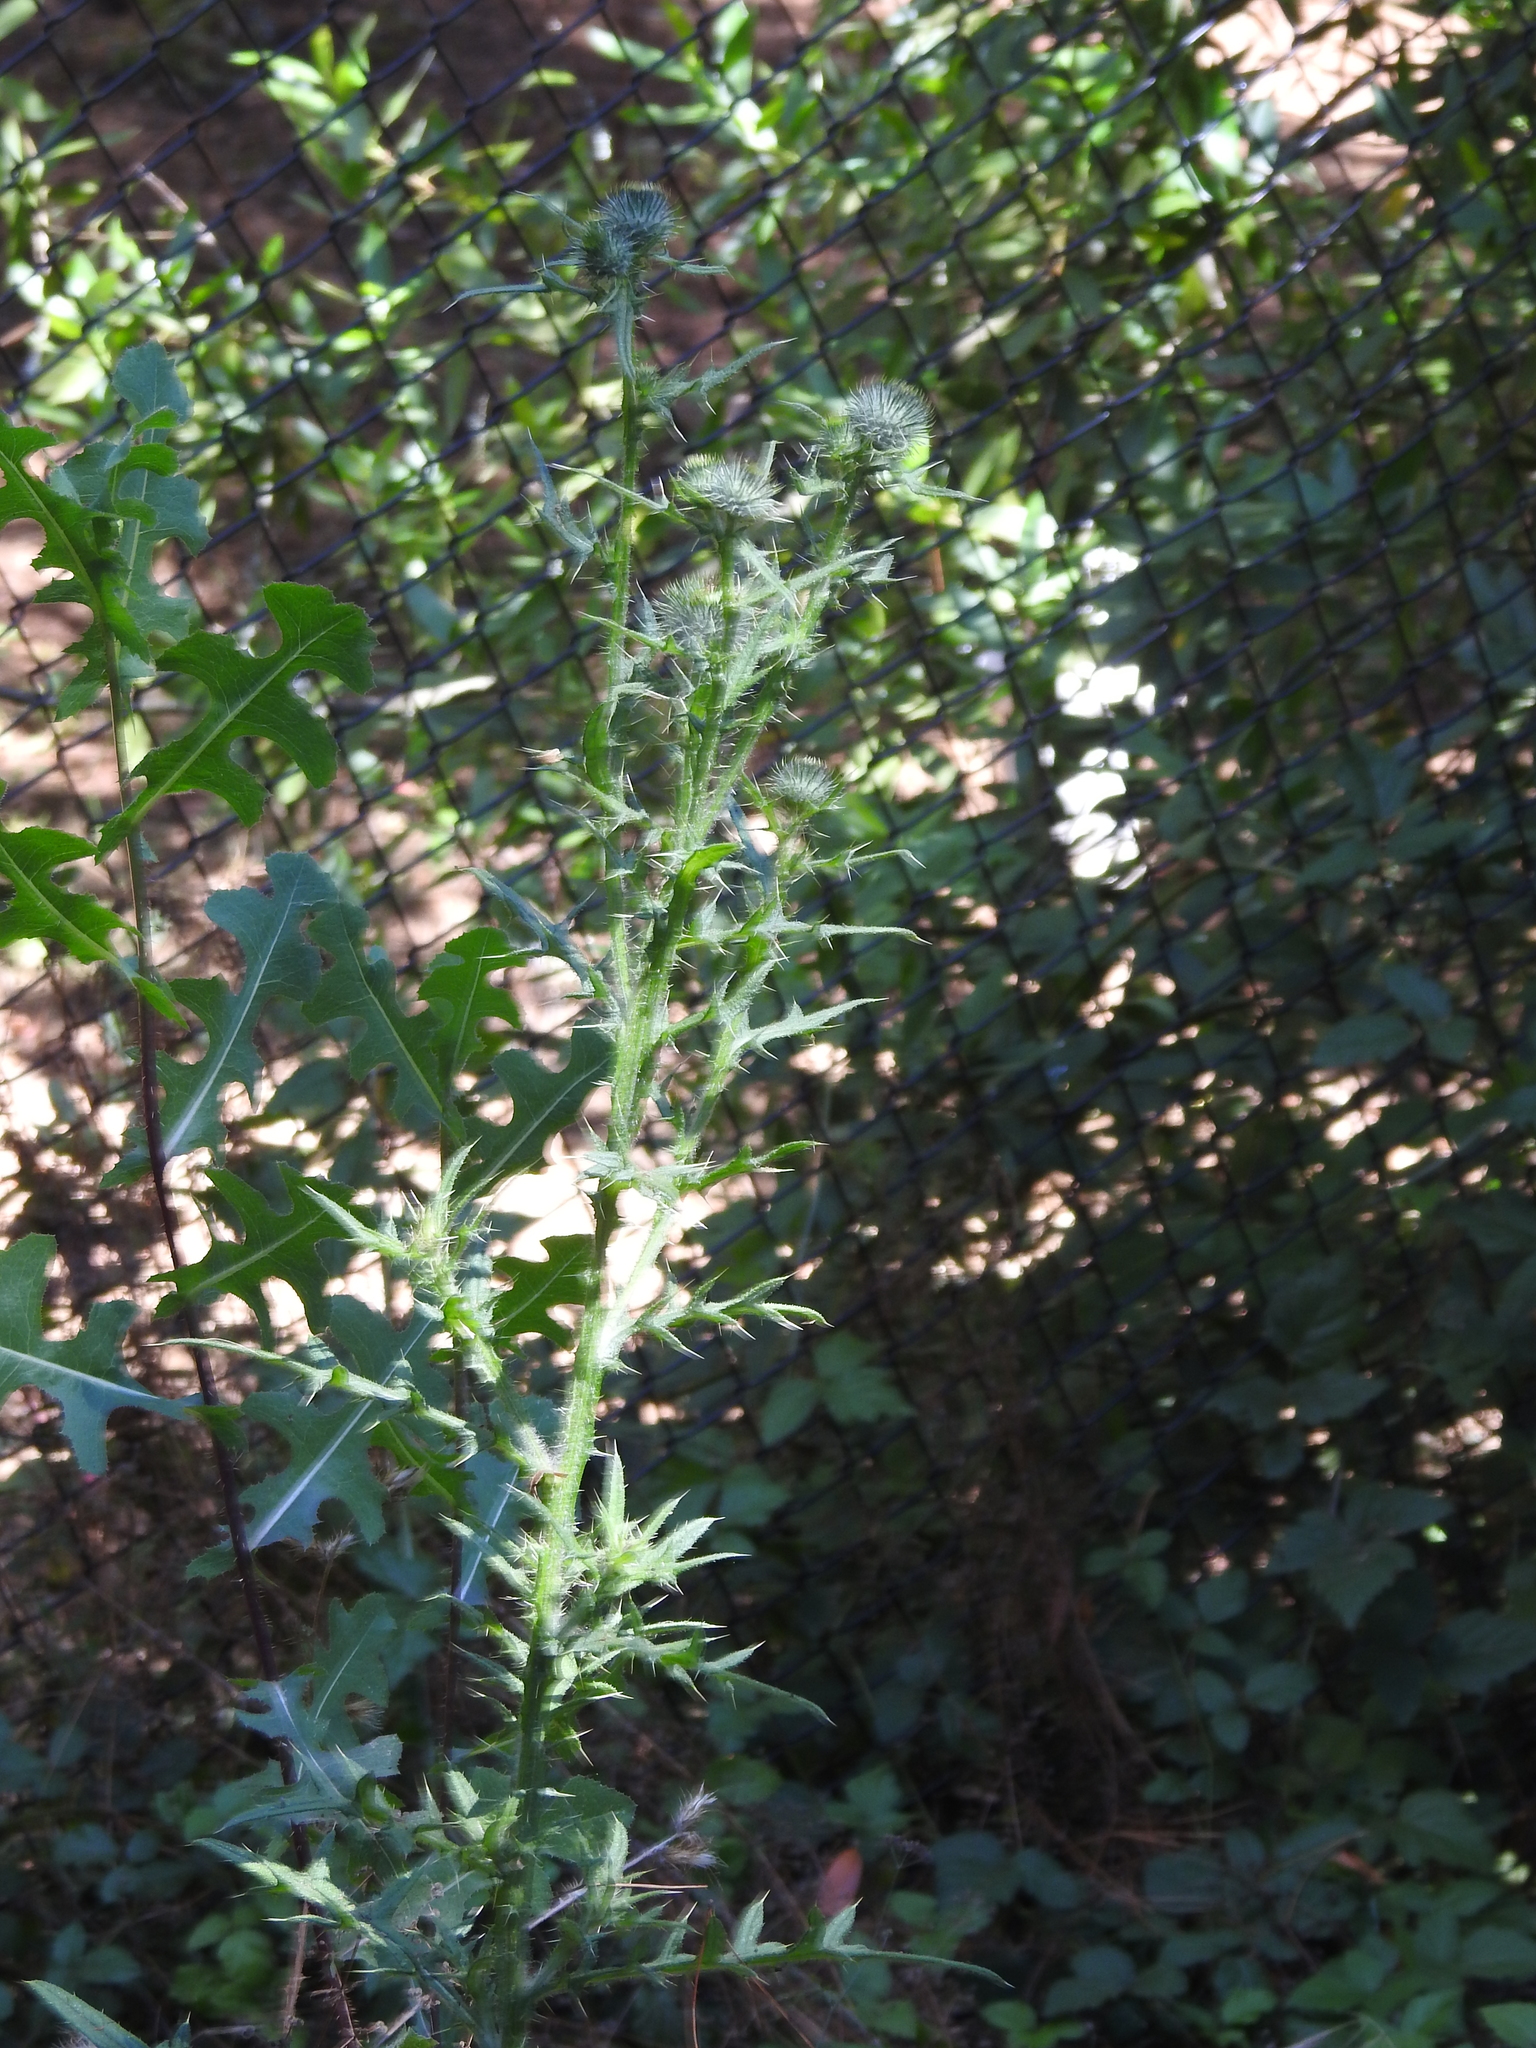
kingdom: Plantae
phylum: Tracheophyta
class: Magnoliopsida
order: Asterales
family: Asteraceae
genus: Cirsium
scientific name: Cirsium vulgare
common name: Bull thistle
